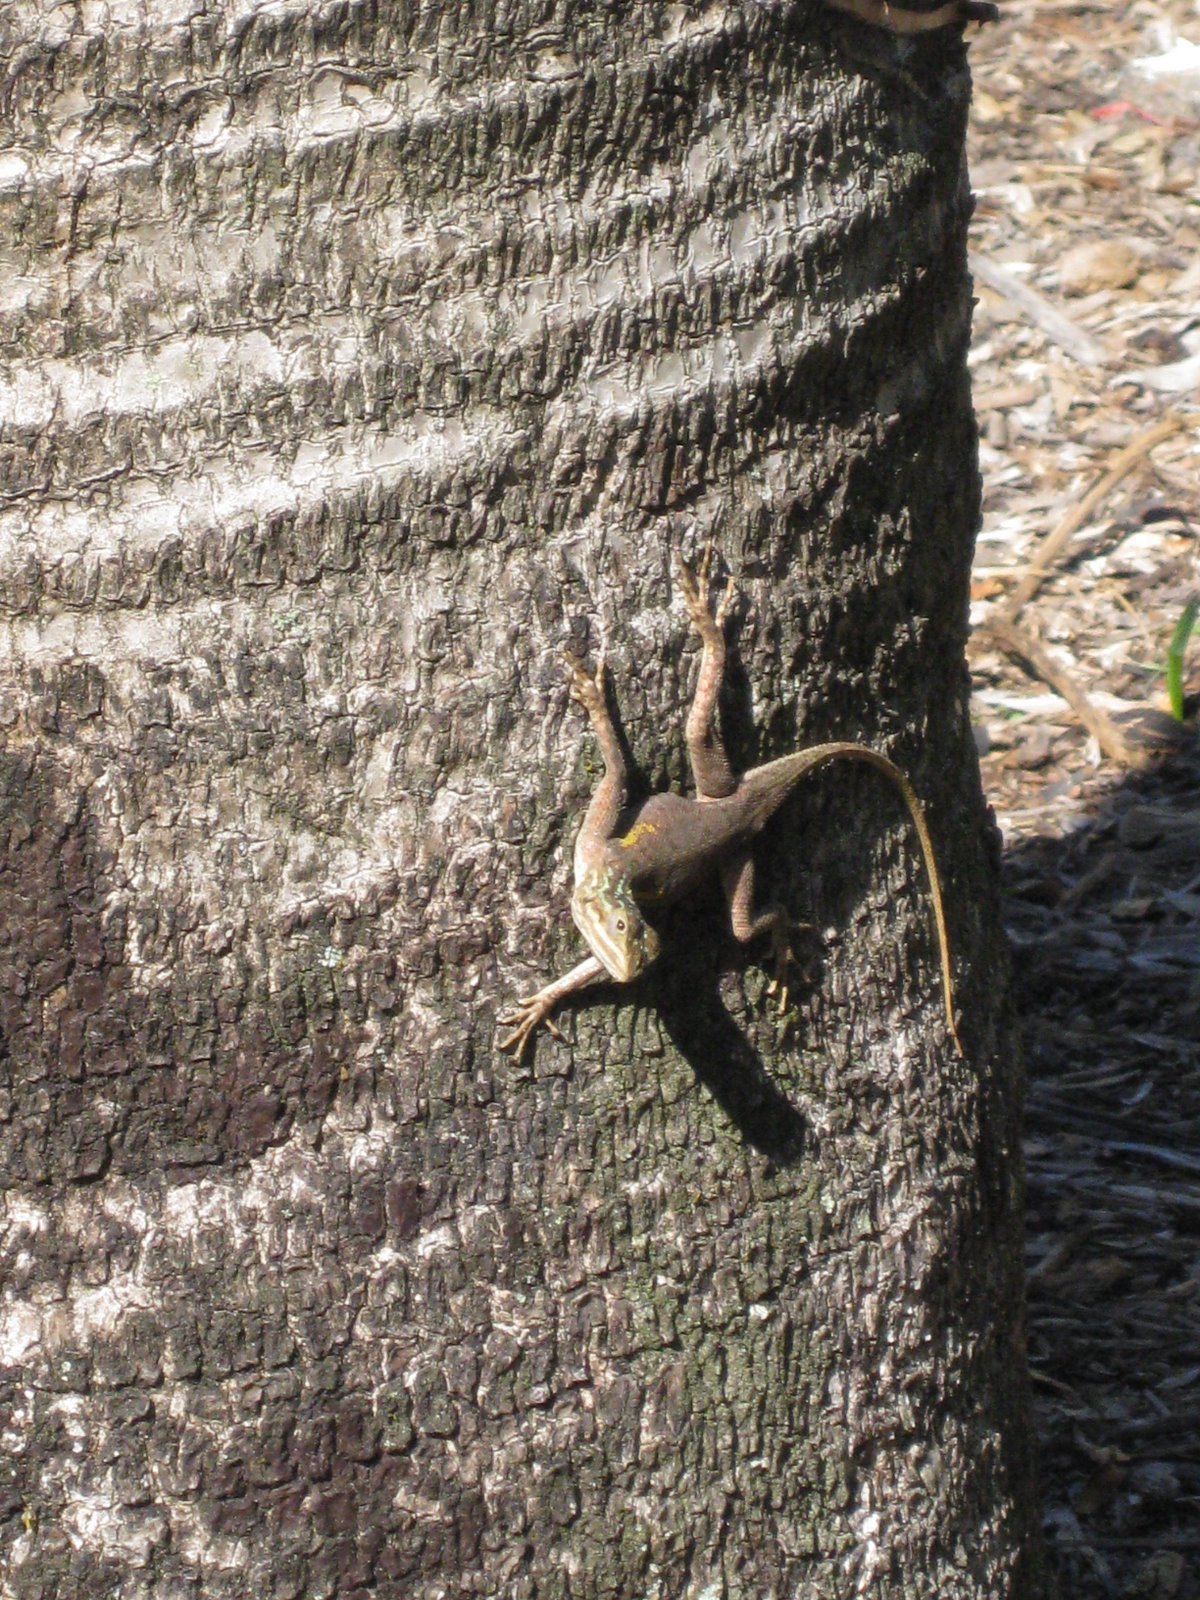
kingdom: Animalia
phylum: Chordata
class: Squamata
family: Agamidae
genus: Agama
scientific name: Agama picticauda
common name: Red-headed agama
